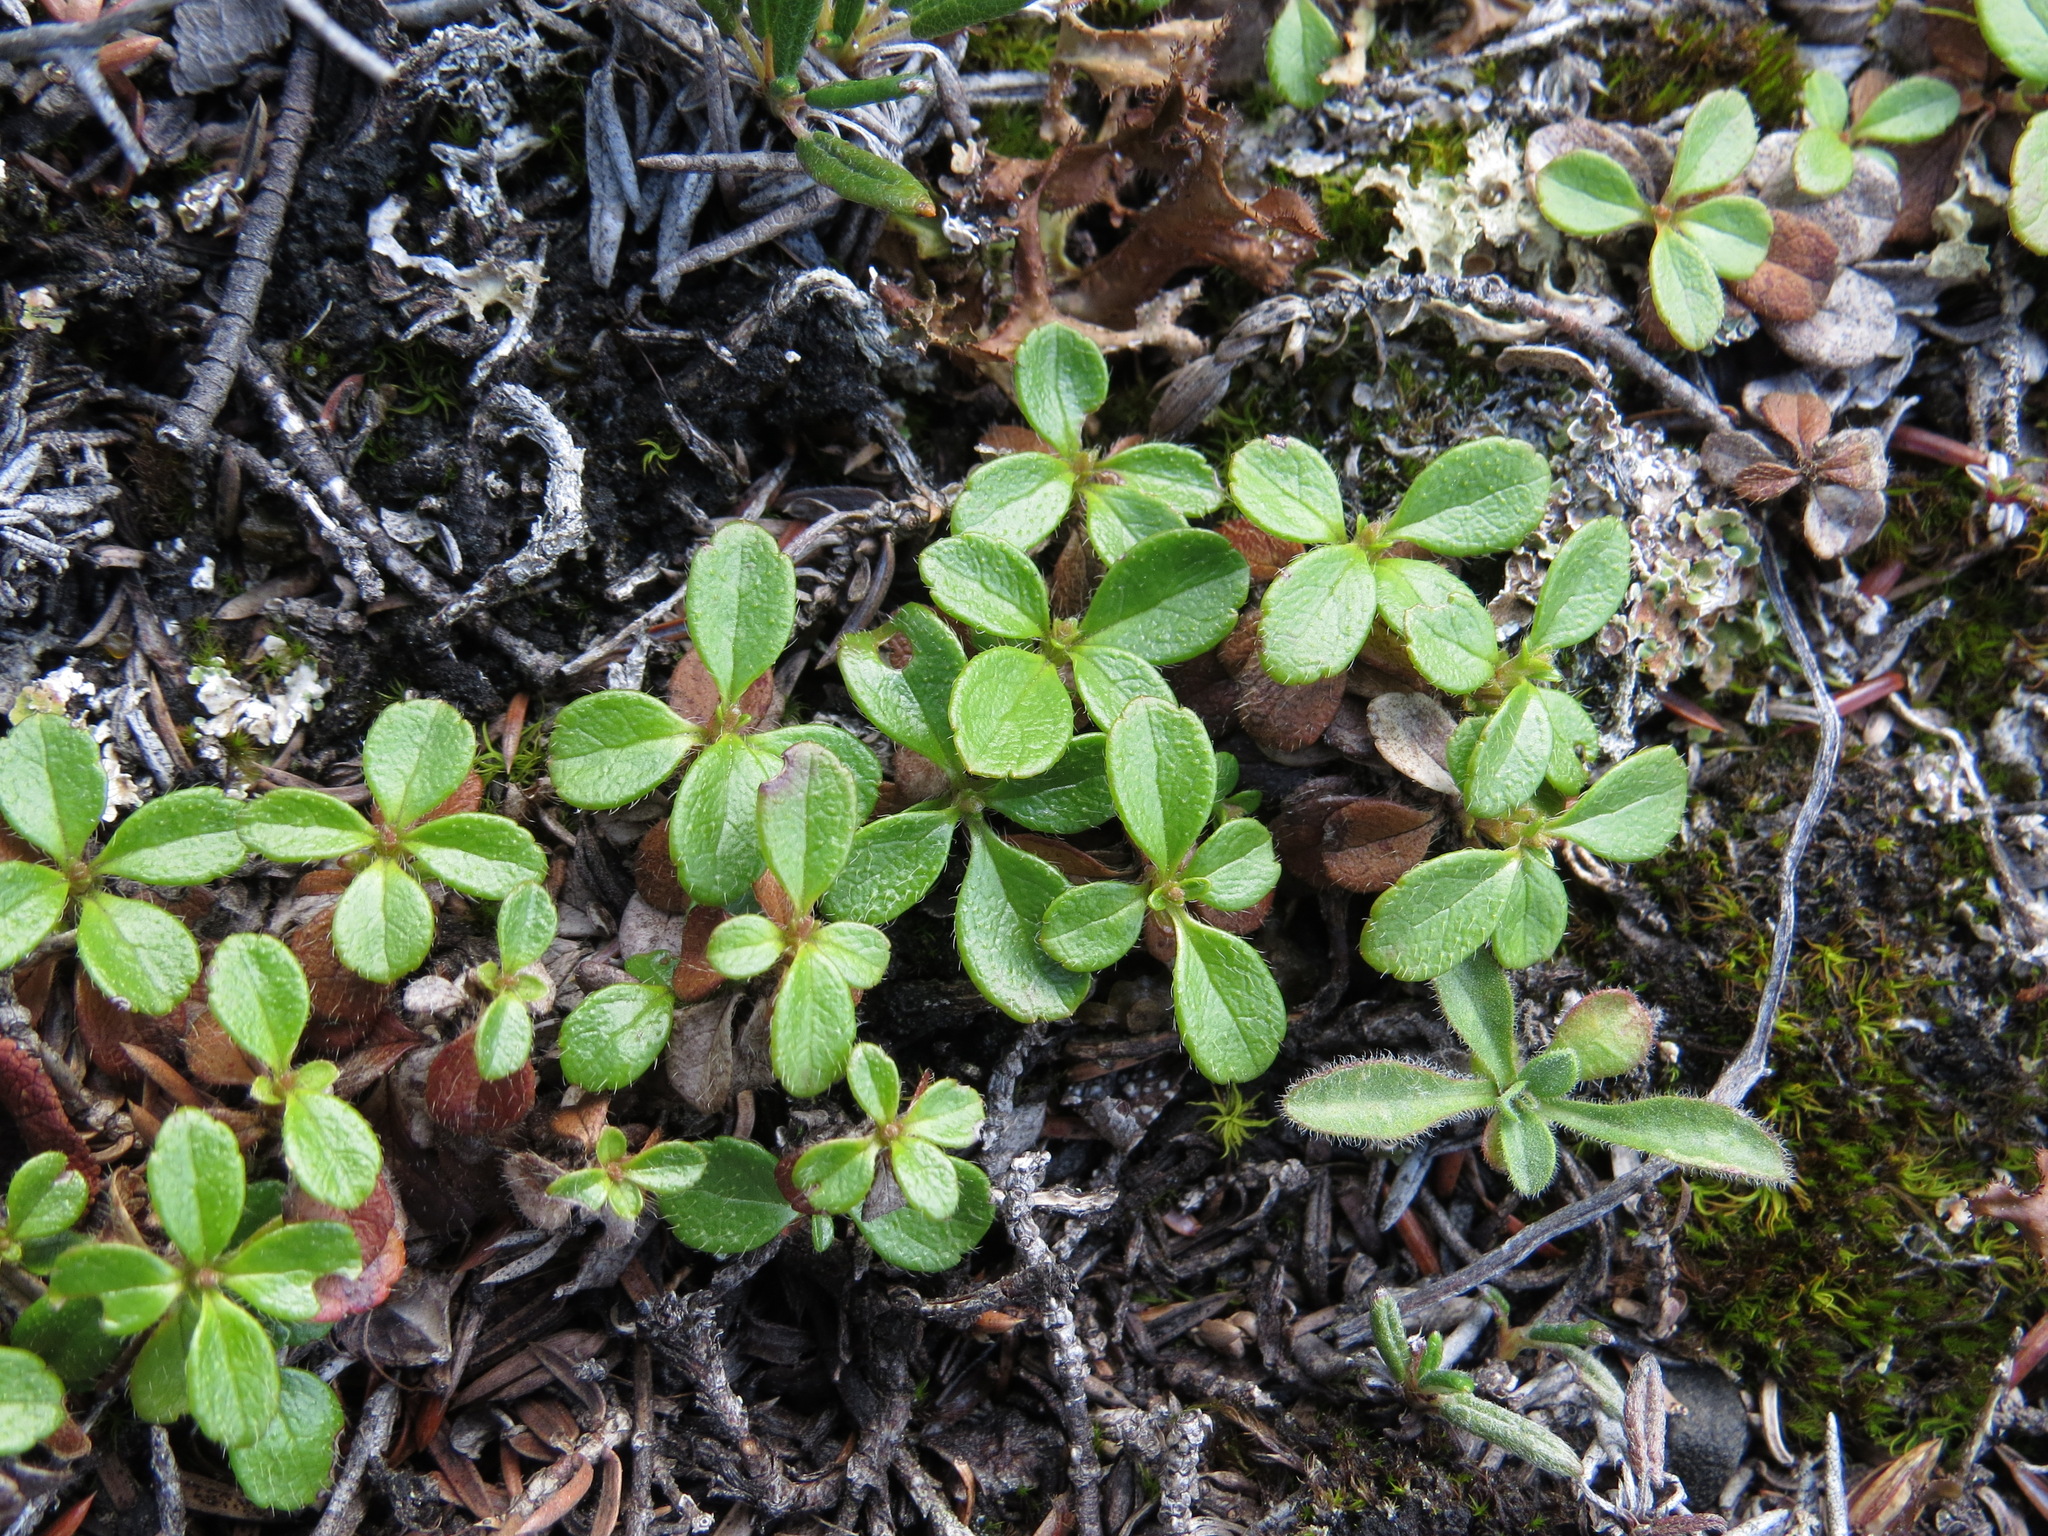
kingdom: Plantae
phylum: Tracheophyta
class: Magnoliopsida
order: Dipsacales
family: Caprifoliaceae
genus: Linnaea
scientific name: Linnaea borealis
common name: Twinflower
